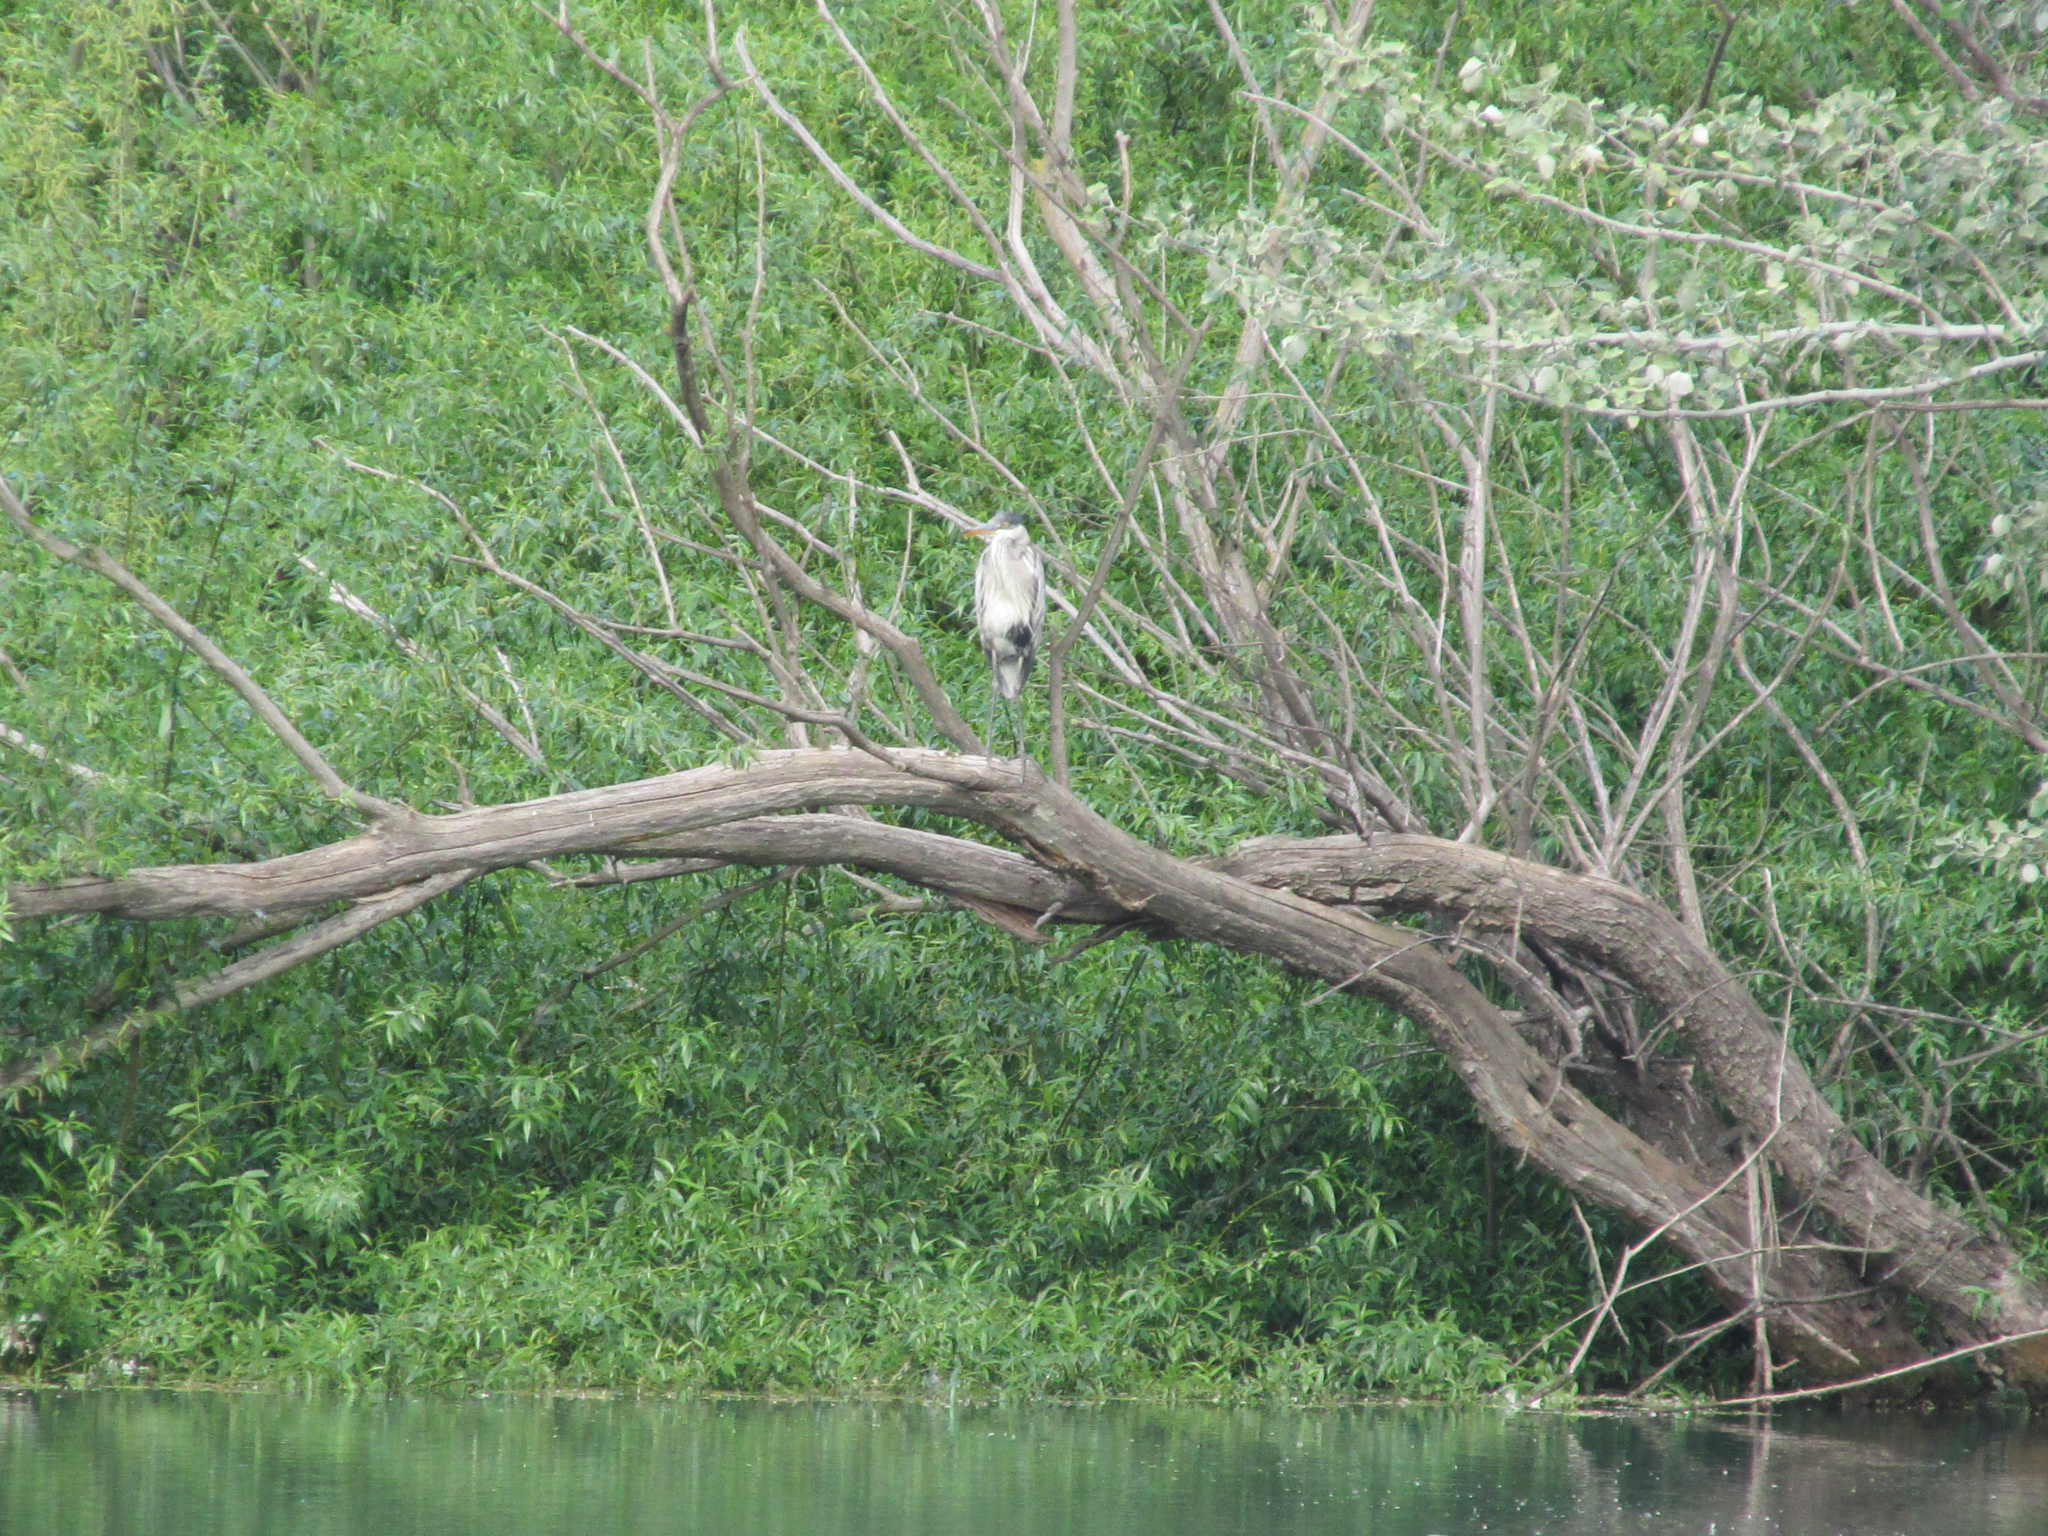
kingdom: Animalia
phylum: Chordata
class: Aves
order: Pelecaniformes
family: Ardeidae
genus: Ardea
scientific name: Ardea cocoi
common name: Cocoi heron
